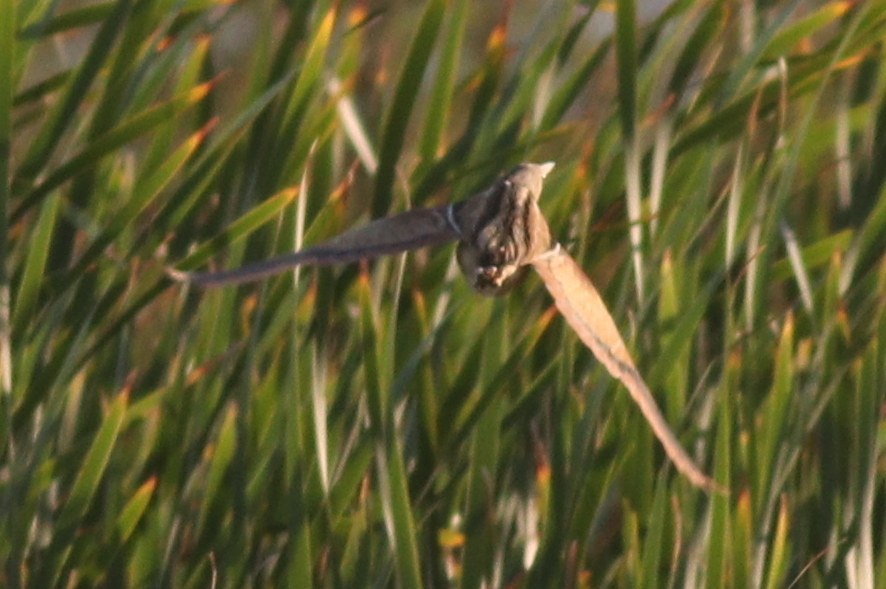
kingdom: Animalia
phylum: Chordata
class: Aves
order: Pelecaniformes
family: Ardeidae
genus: Ixobrychus
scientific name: Ixobrychus involucris
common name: Stripe-backed bittern
